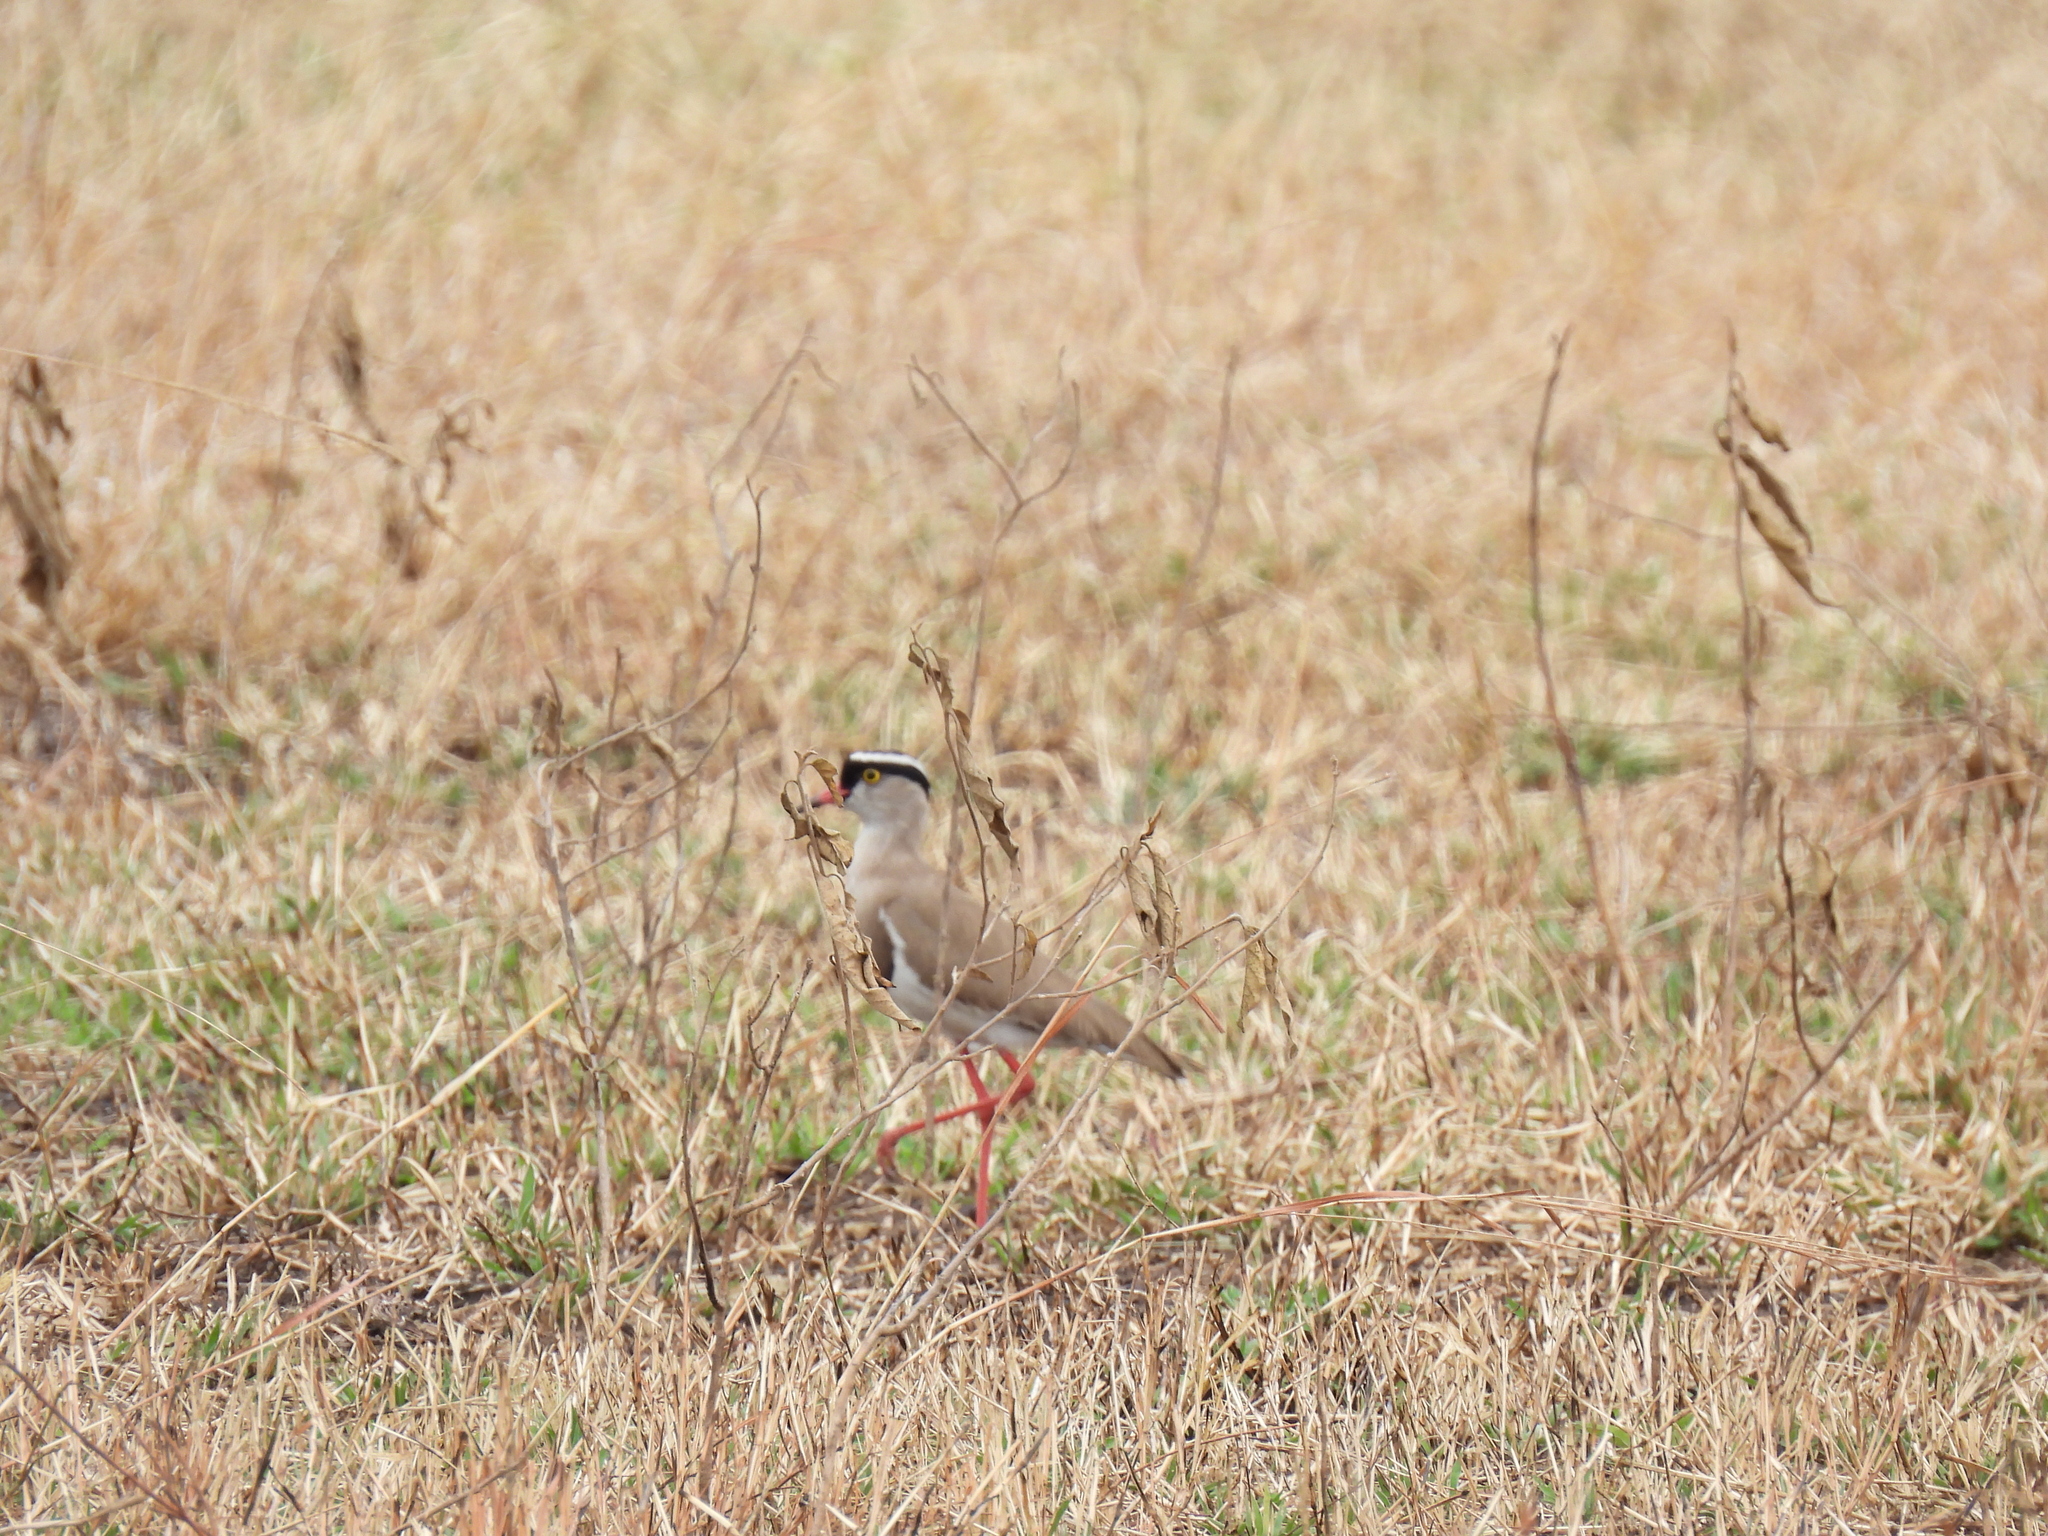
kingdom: Animalia
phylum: Chordata
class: Aves
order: Charadriiformes
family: Charadriidae
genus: Vanellus
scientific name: Vanellus coronatus
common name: Crowned lapwing
